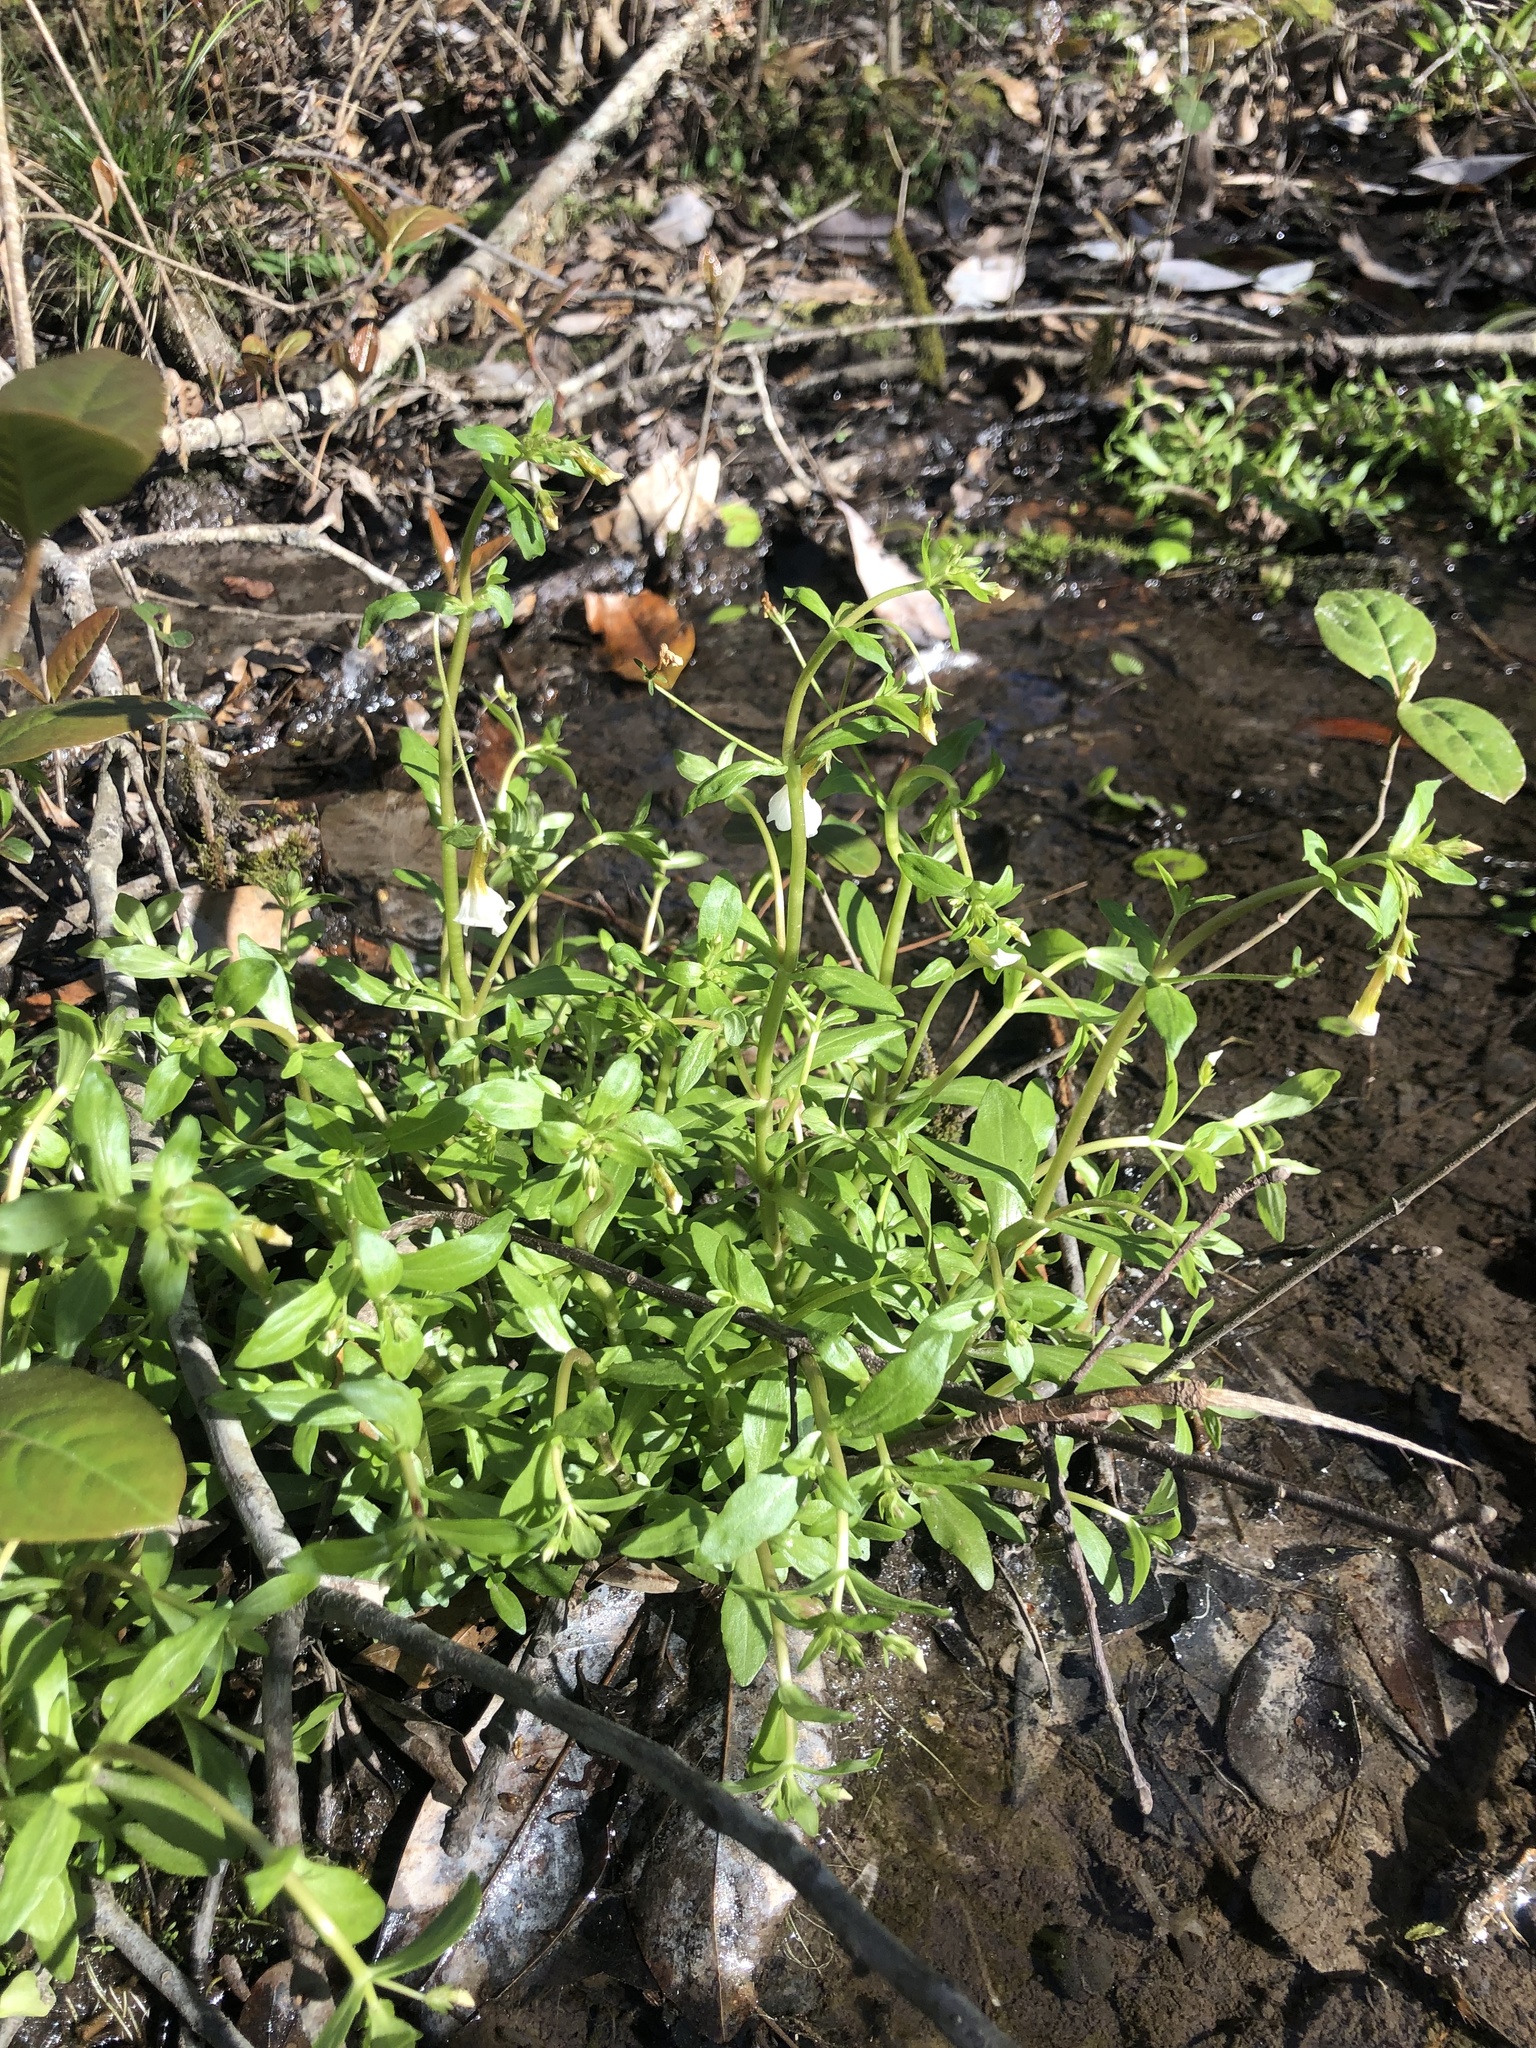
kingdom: Plantae
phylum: Tracheophyta
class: Magnoliopsida
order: Lamiales
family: Plantaginaceae
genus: Gratiola
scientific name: Gratiola floridana
